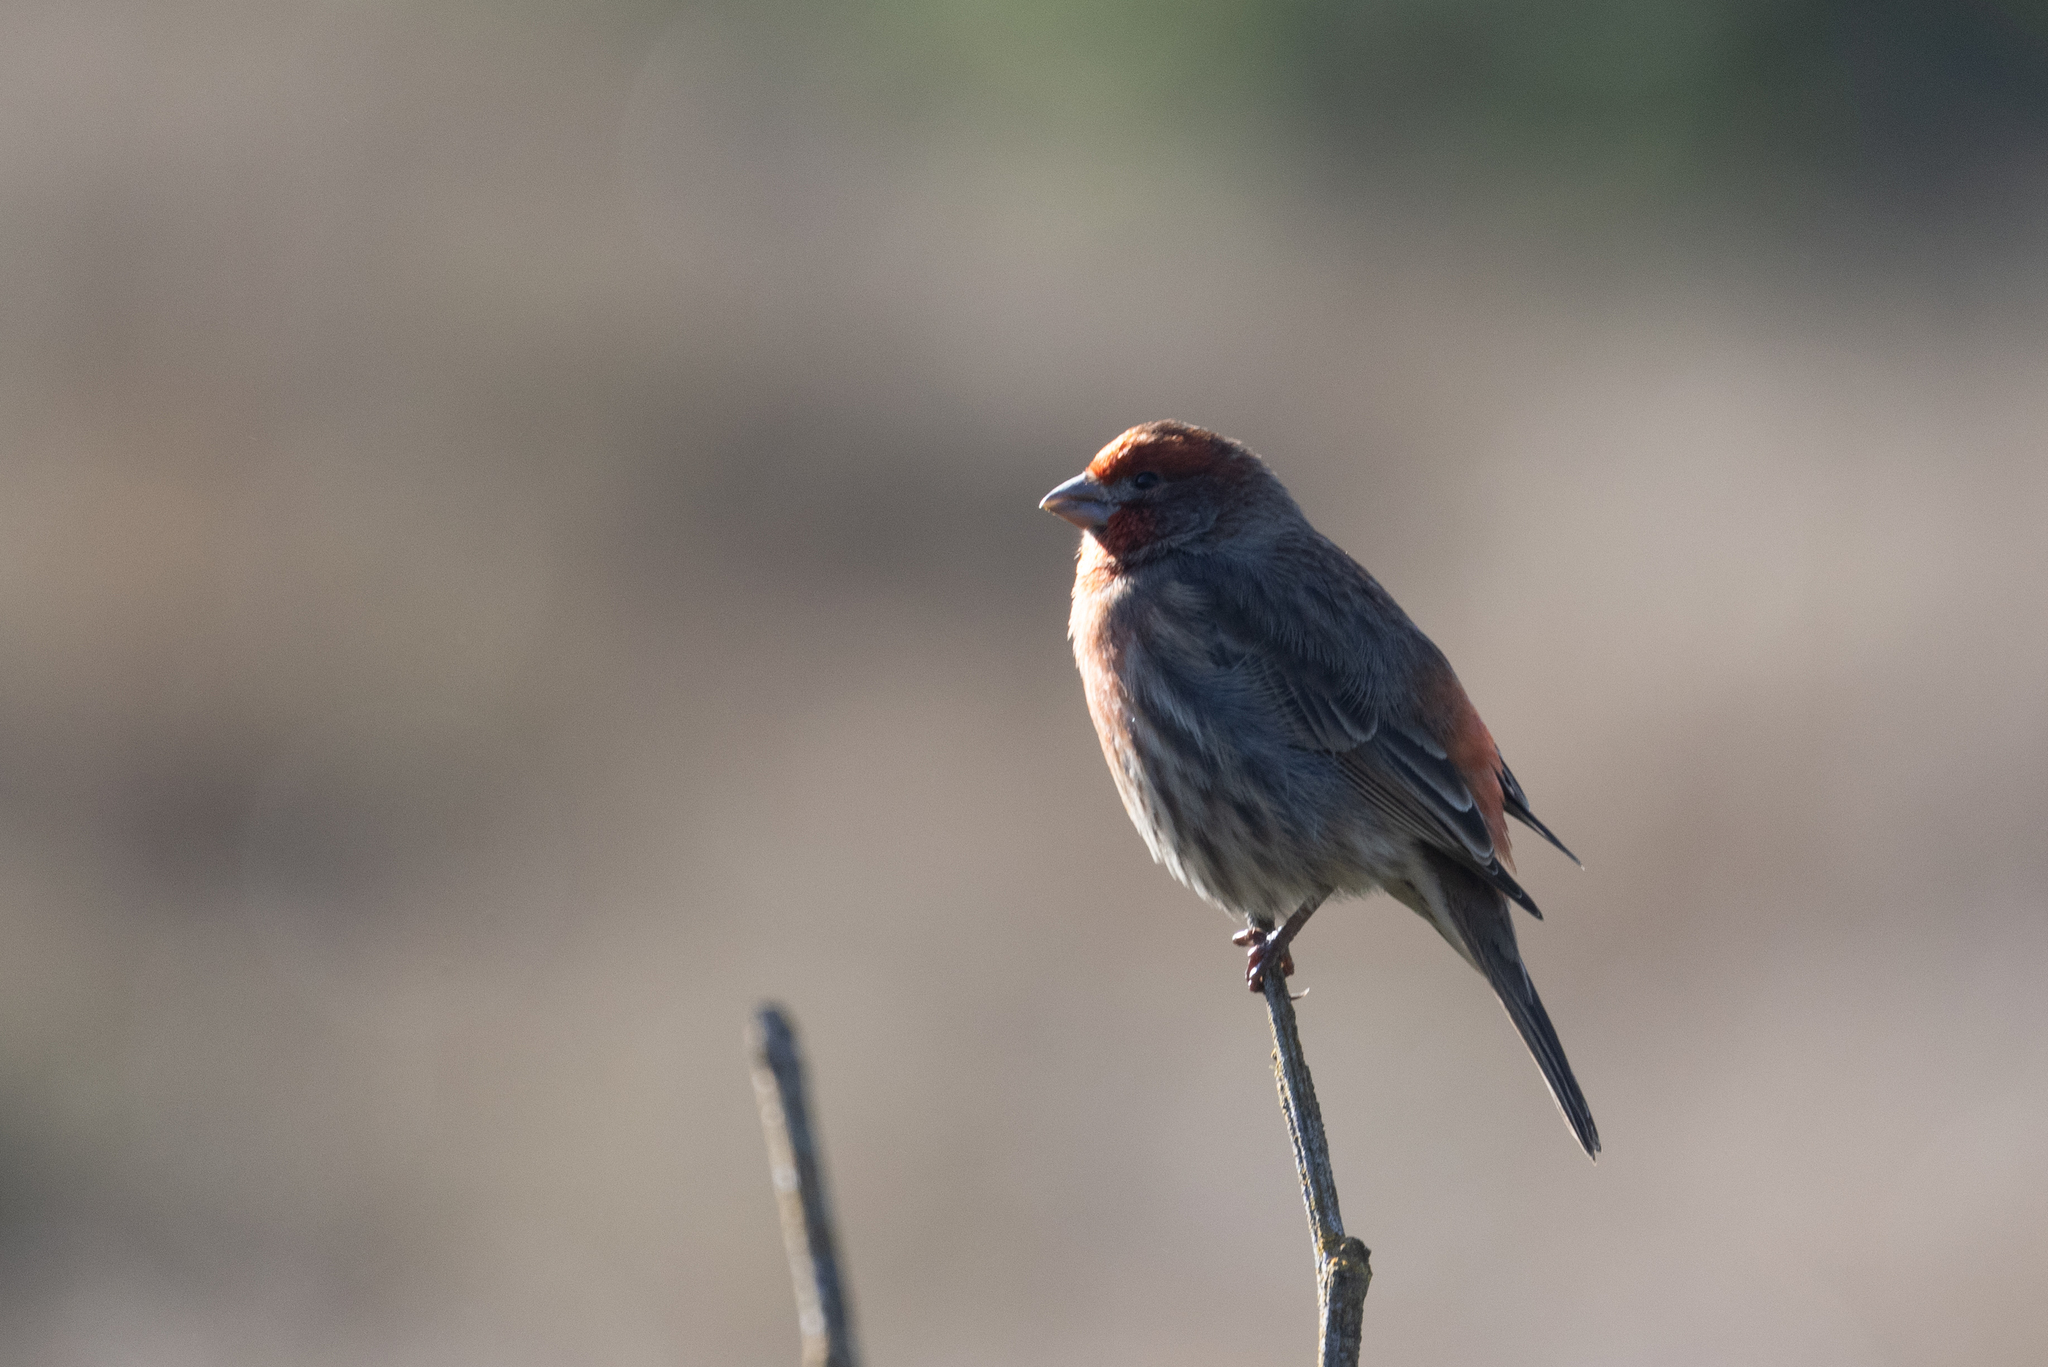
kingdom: Animalia
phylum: Chordata
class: Aves
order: Passeriformes
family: Fringillidae
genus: Haemorhous
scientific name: Haemorhous mexicanus
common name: House finch
